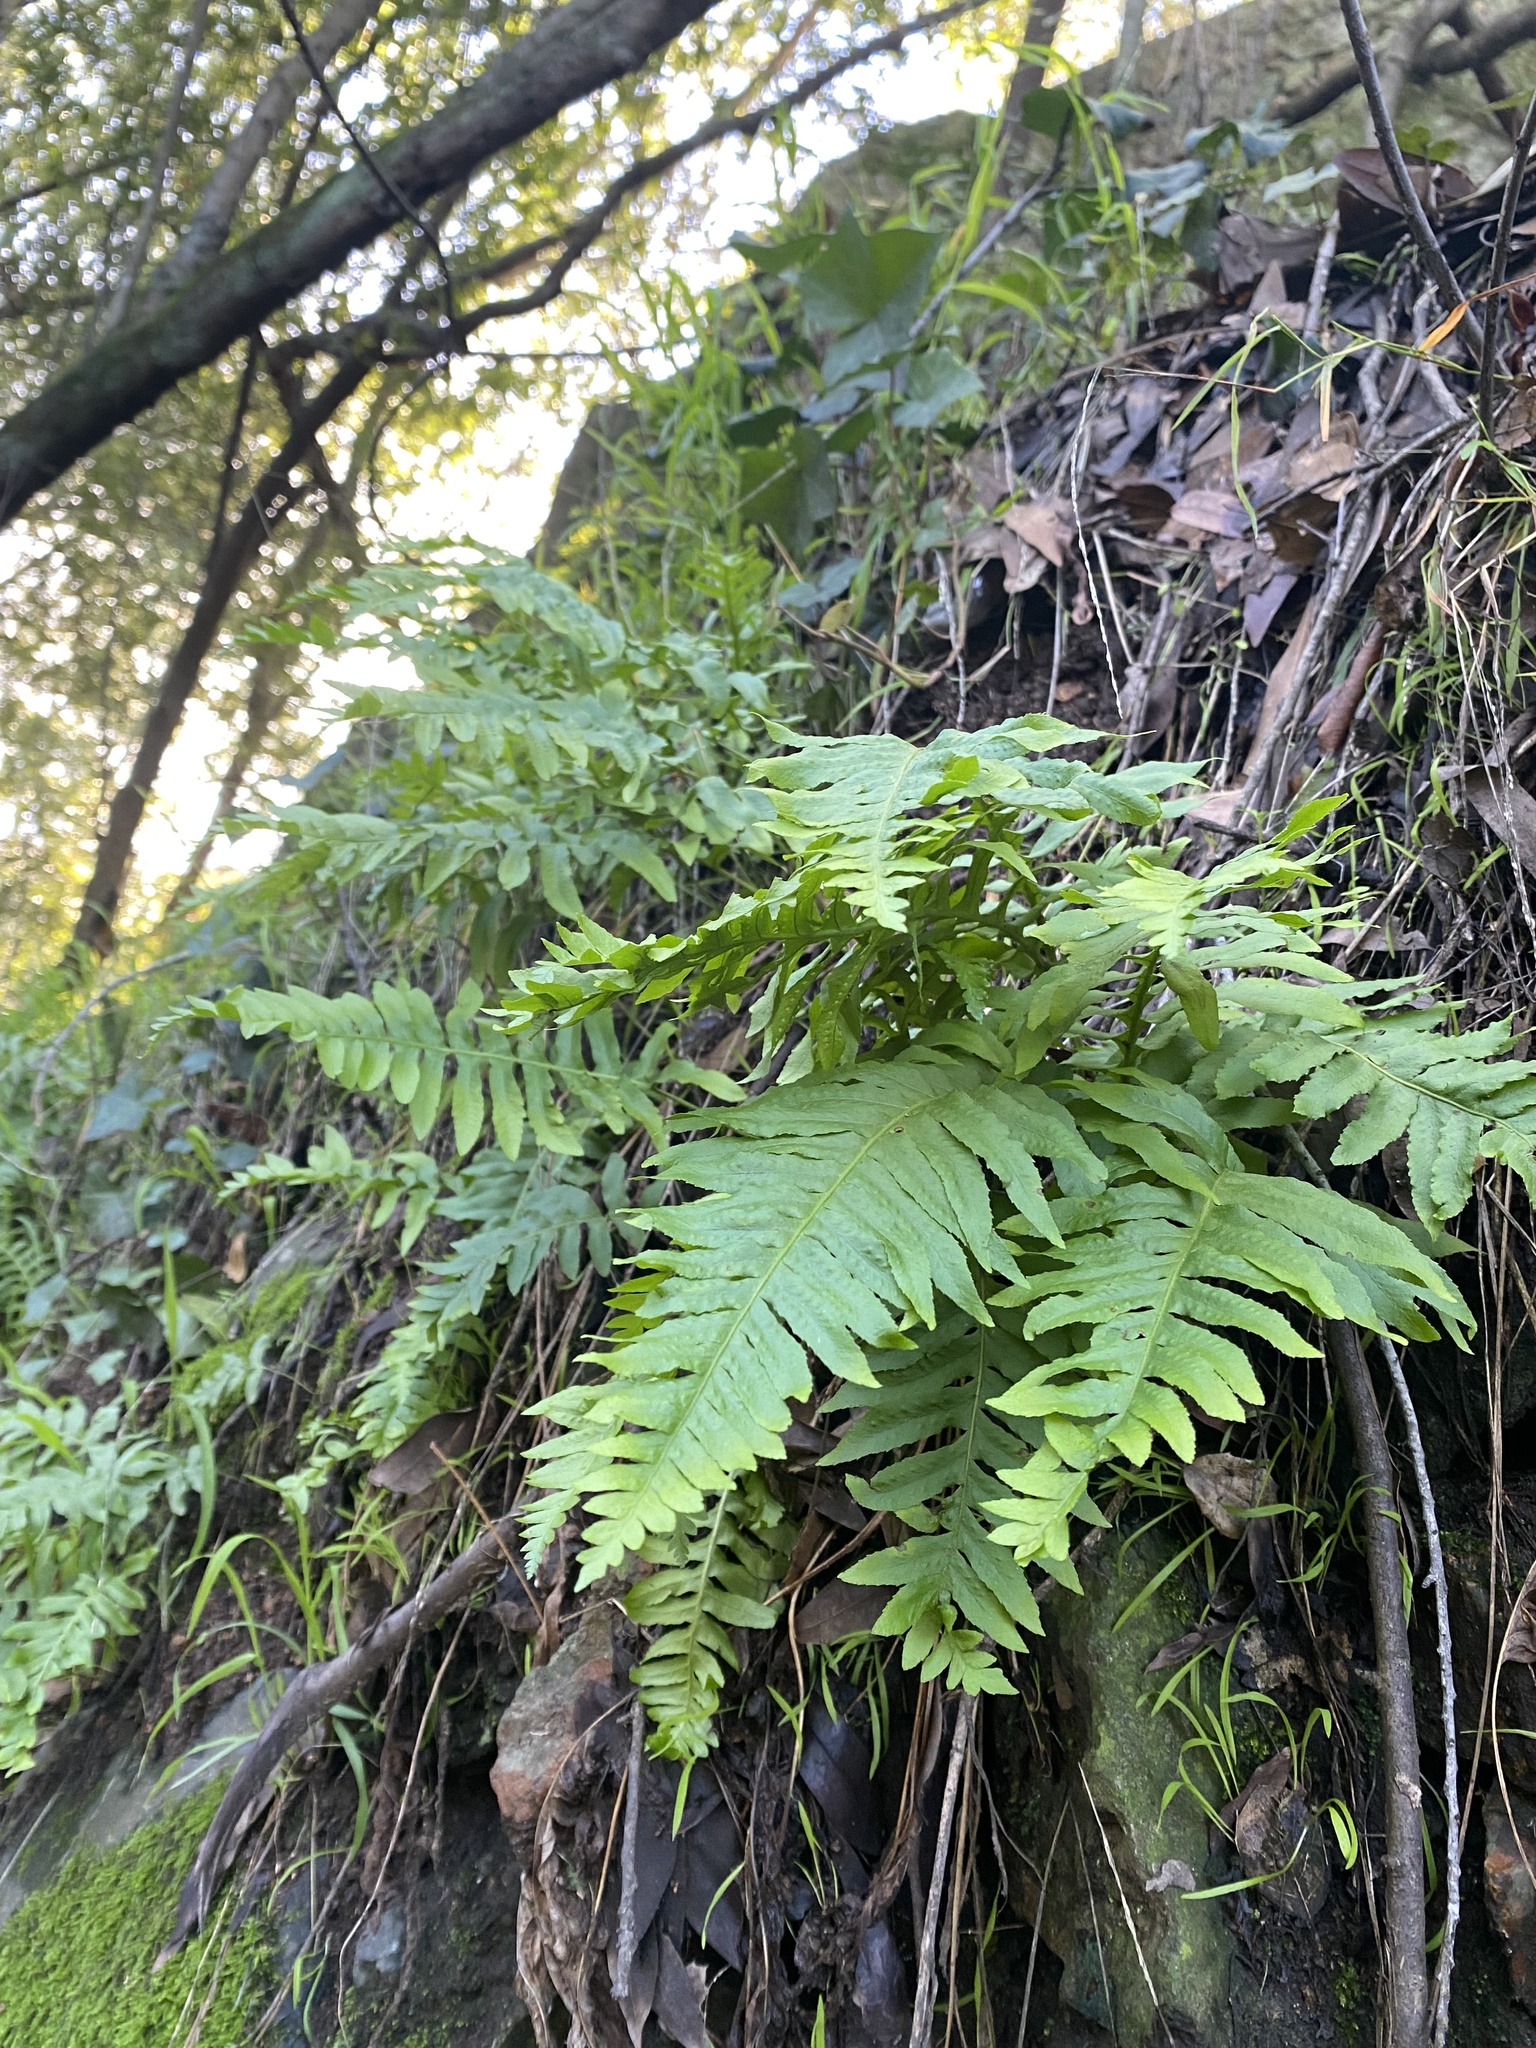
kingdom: Plantae
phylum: Tracheophyta
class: Polypodiopsida
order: Polypodiales
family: Polypodiaceae
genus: Polypodium
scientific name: Polypodium californicum
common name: California polypody
